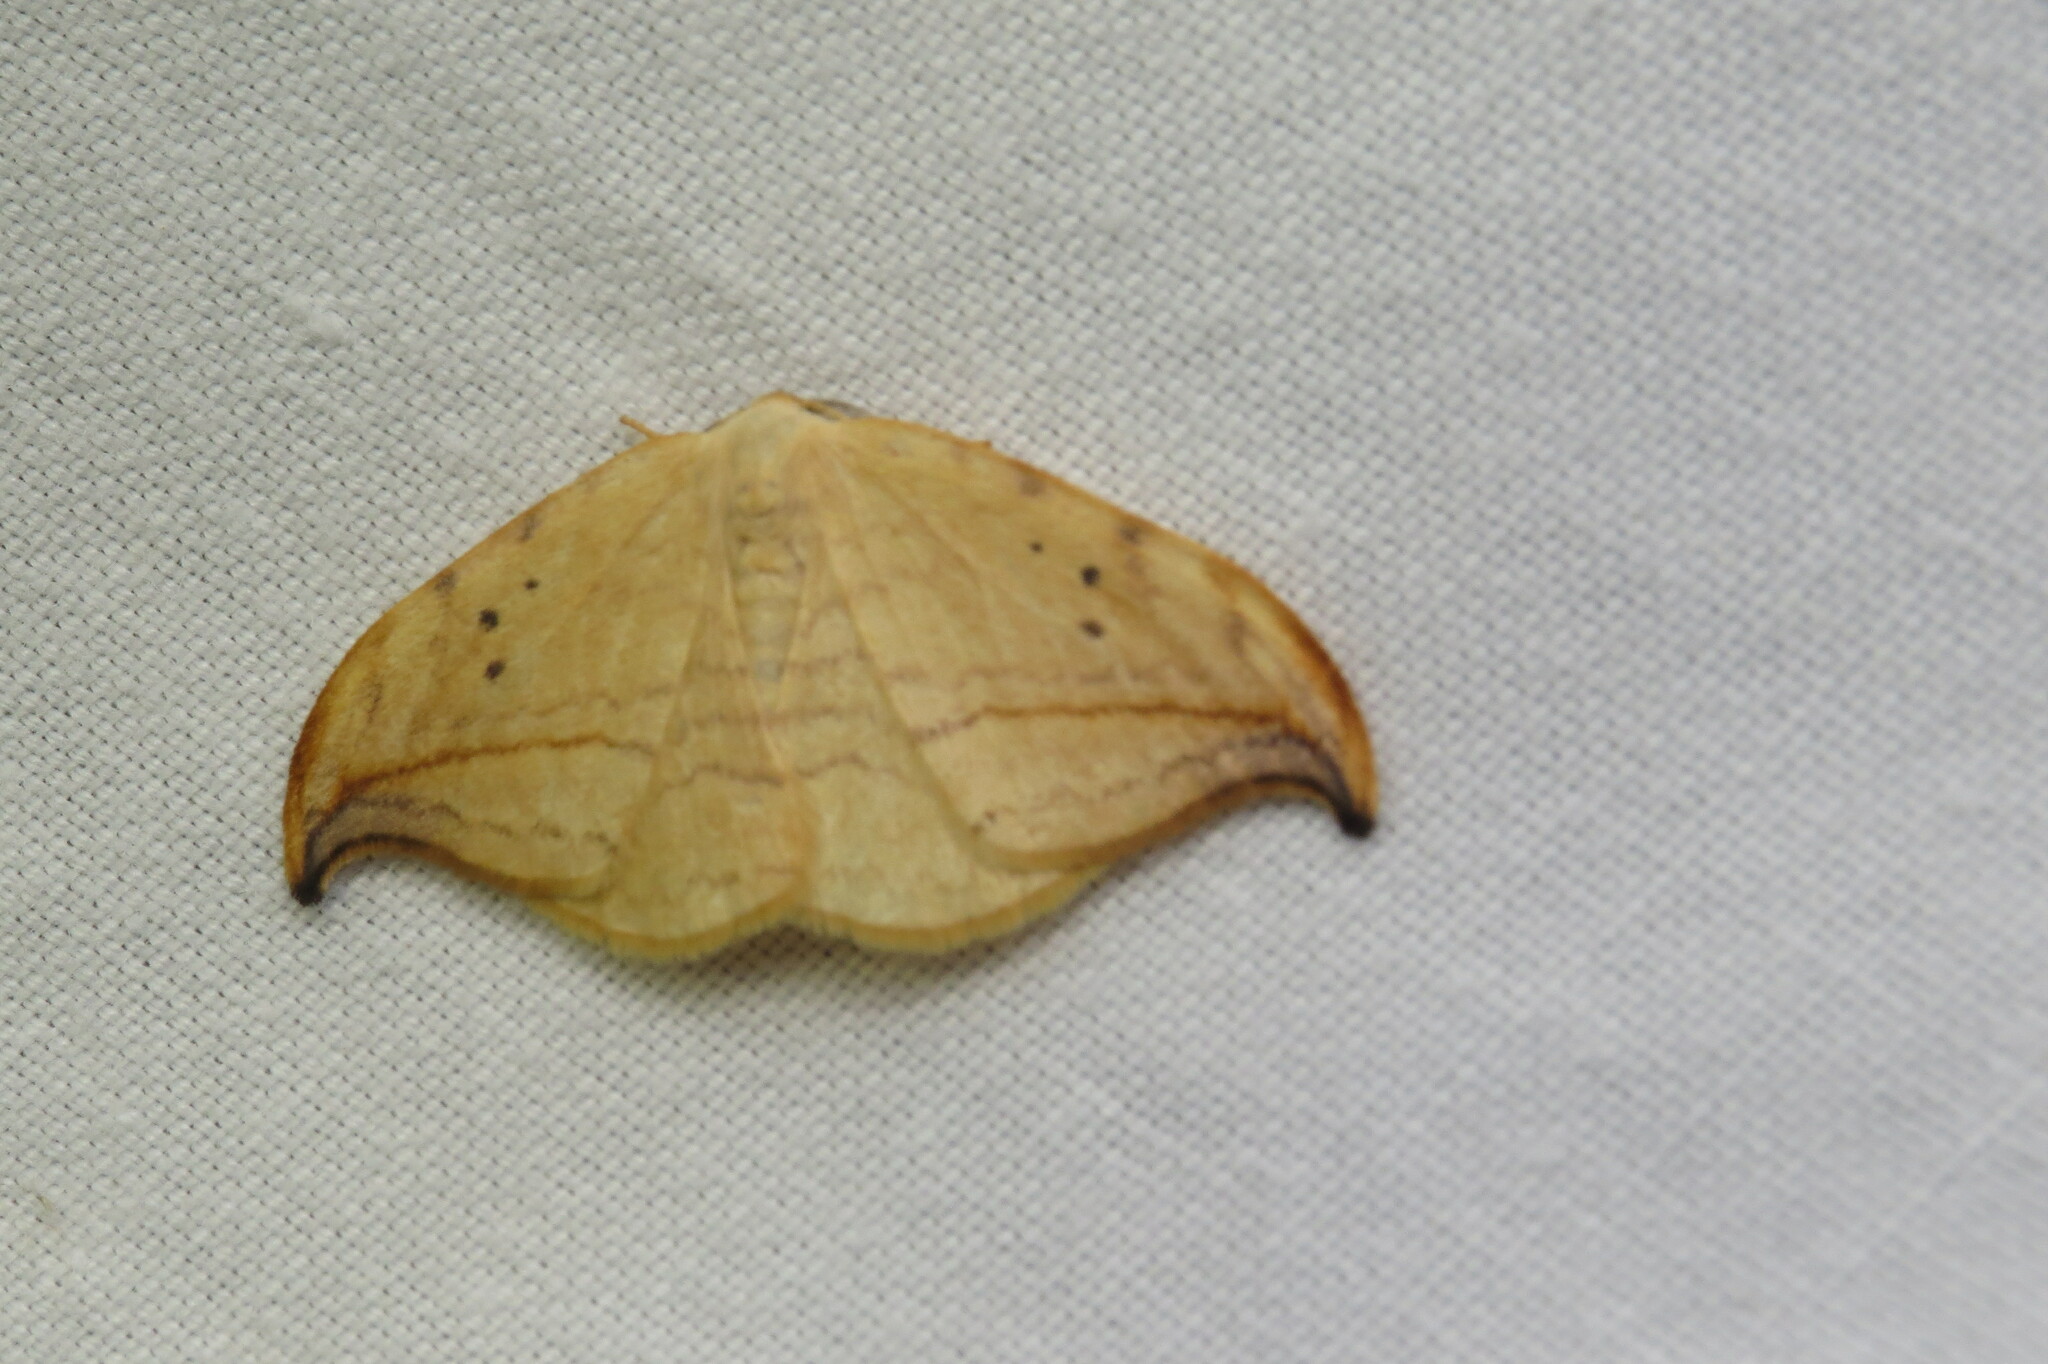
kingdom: Animalia
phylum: Arthropoda
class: Insecta
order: Lepidoptera
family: Drepanidae
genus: Drepana
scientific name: Drepana arcuata
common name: Arched hooktip moth
